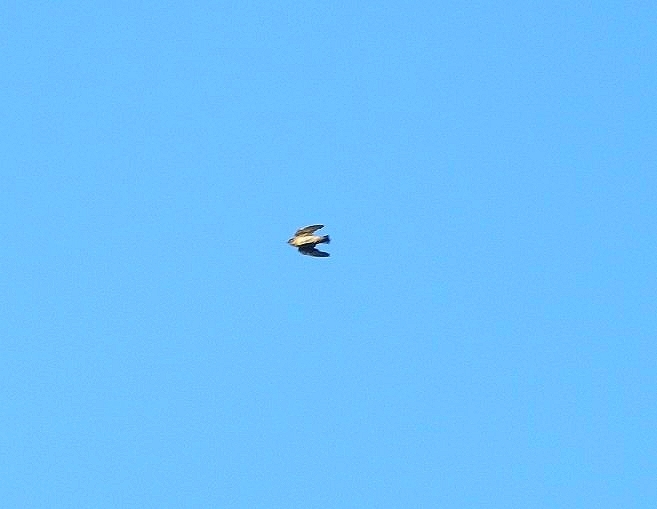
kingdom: Animalia
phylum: Chordata
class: Aves
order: Passeriformes
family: Hirundinidae
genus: Petrochelidon
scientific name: Petrochelidon fulva
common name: Cave swallow
